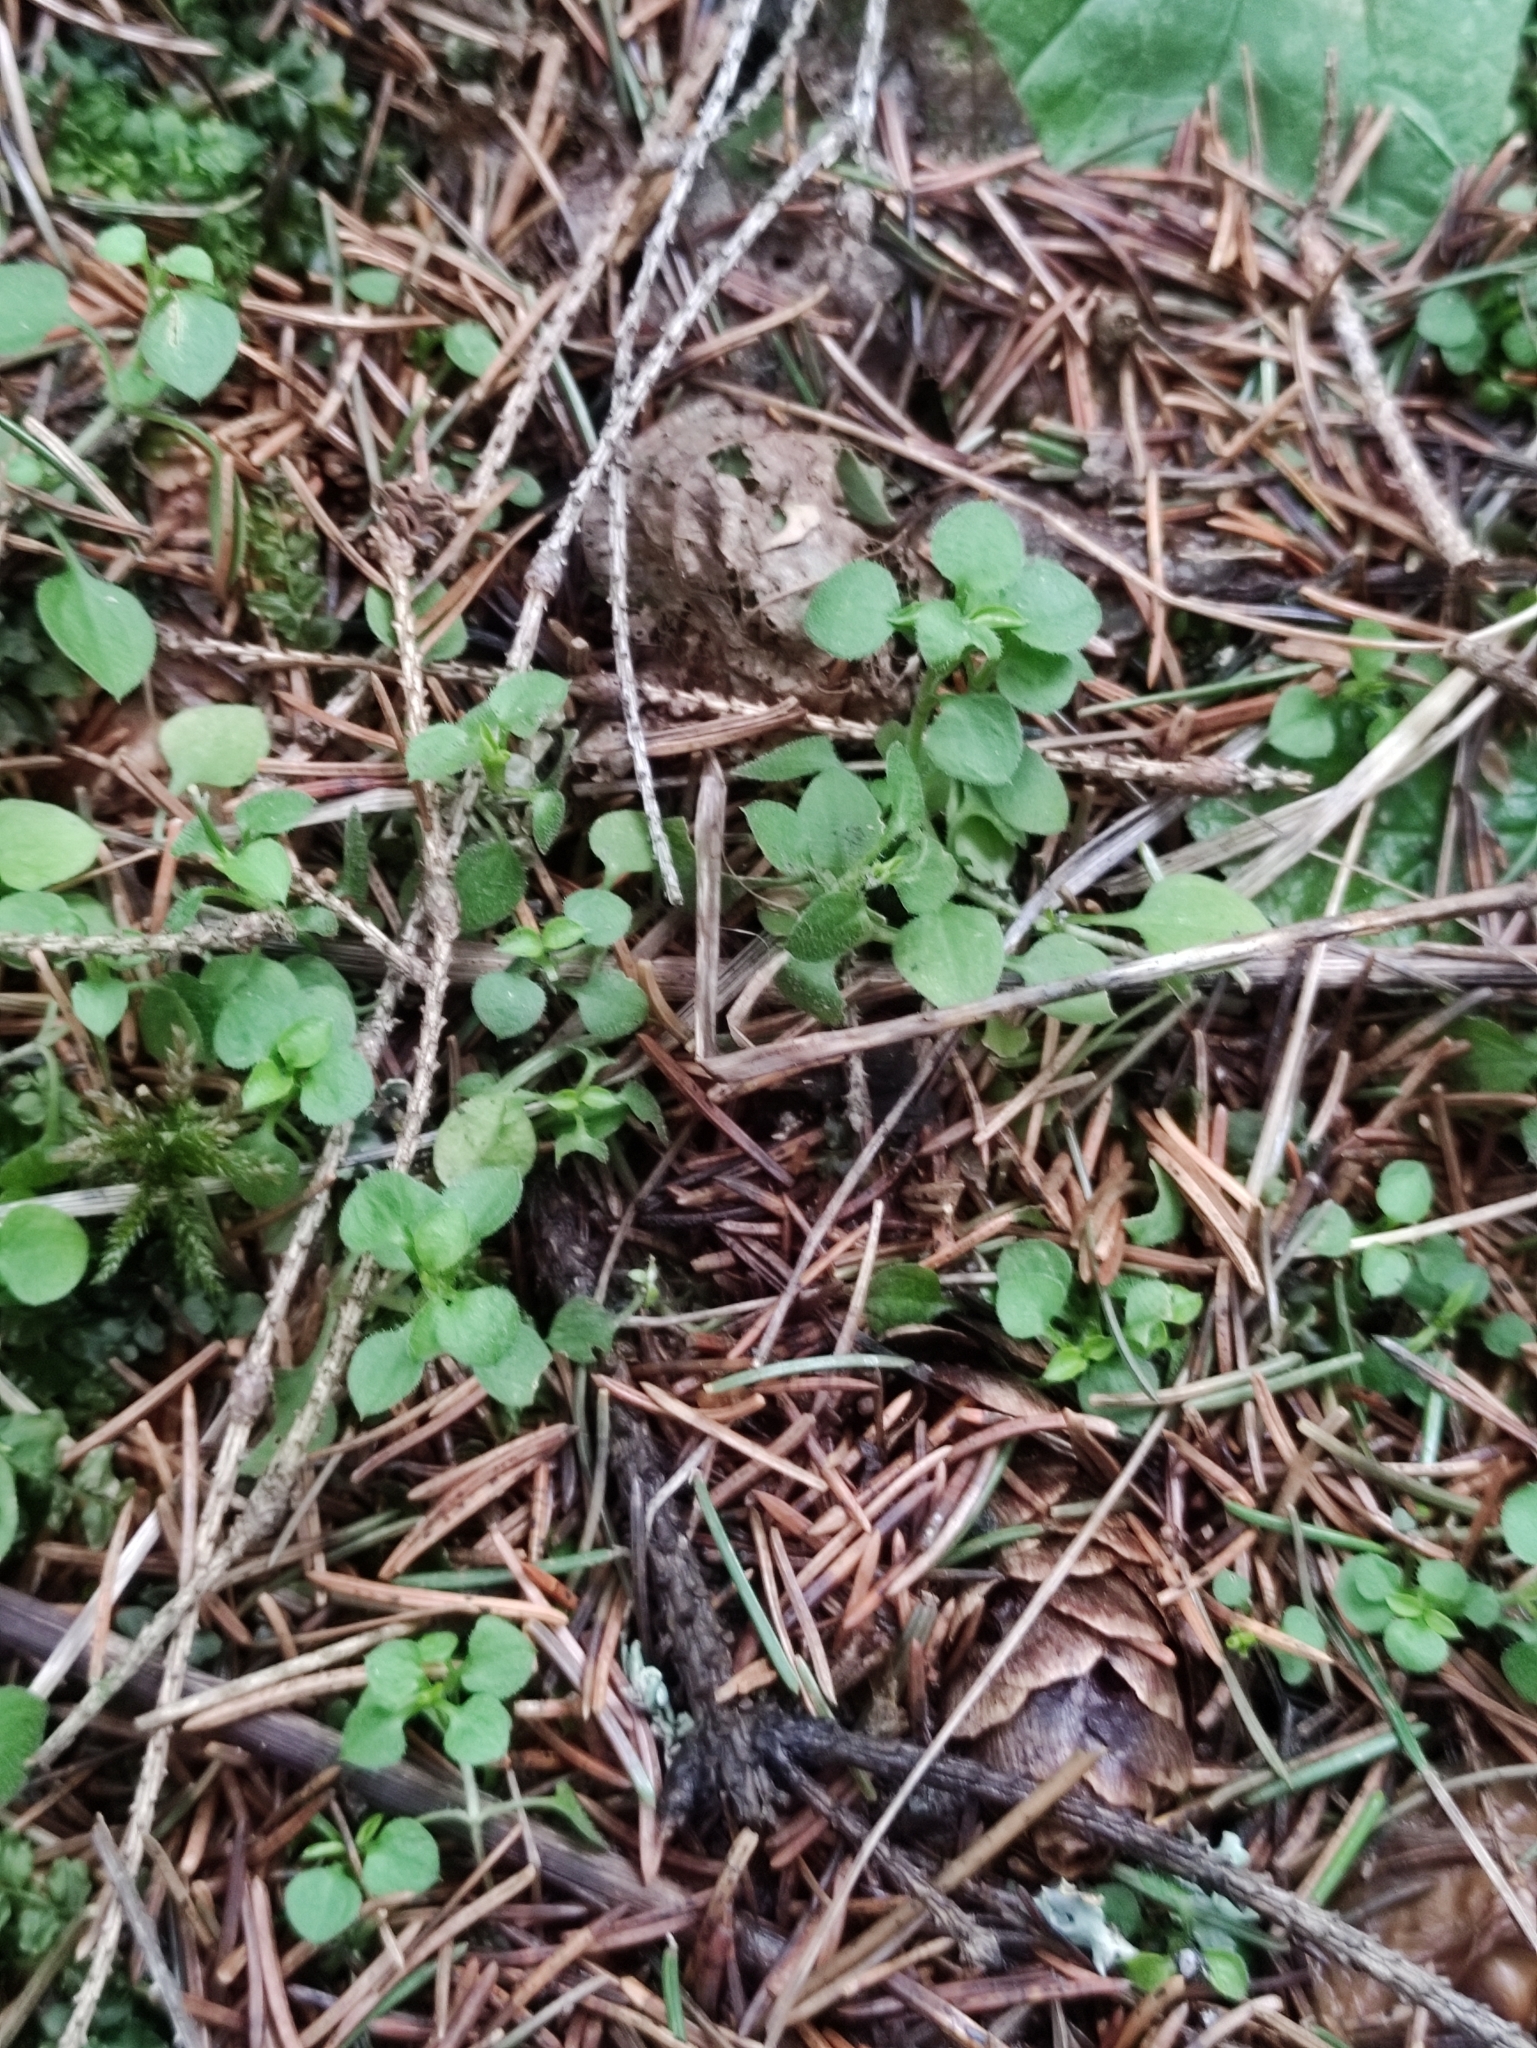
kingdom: Plantae
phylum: Tracheophyta
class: Magnoliopsida
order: Caryophyllales
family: Caryophyllaceae
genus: Moehringia
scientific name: Moehringia trinervia
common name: Three-nerved sandwort
